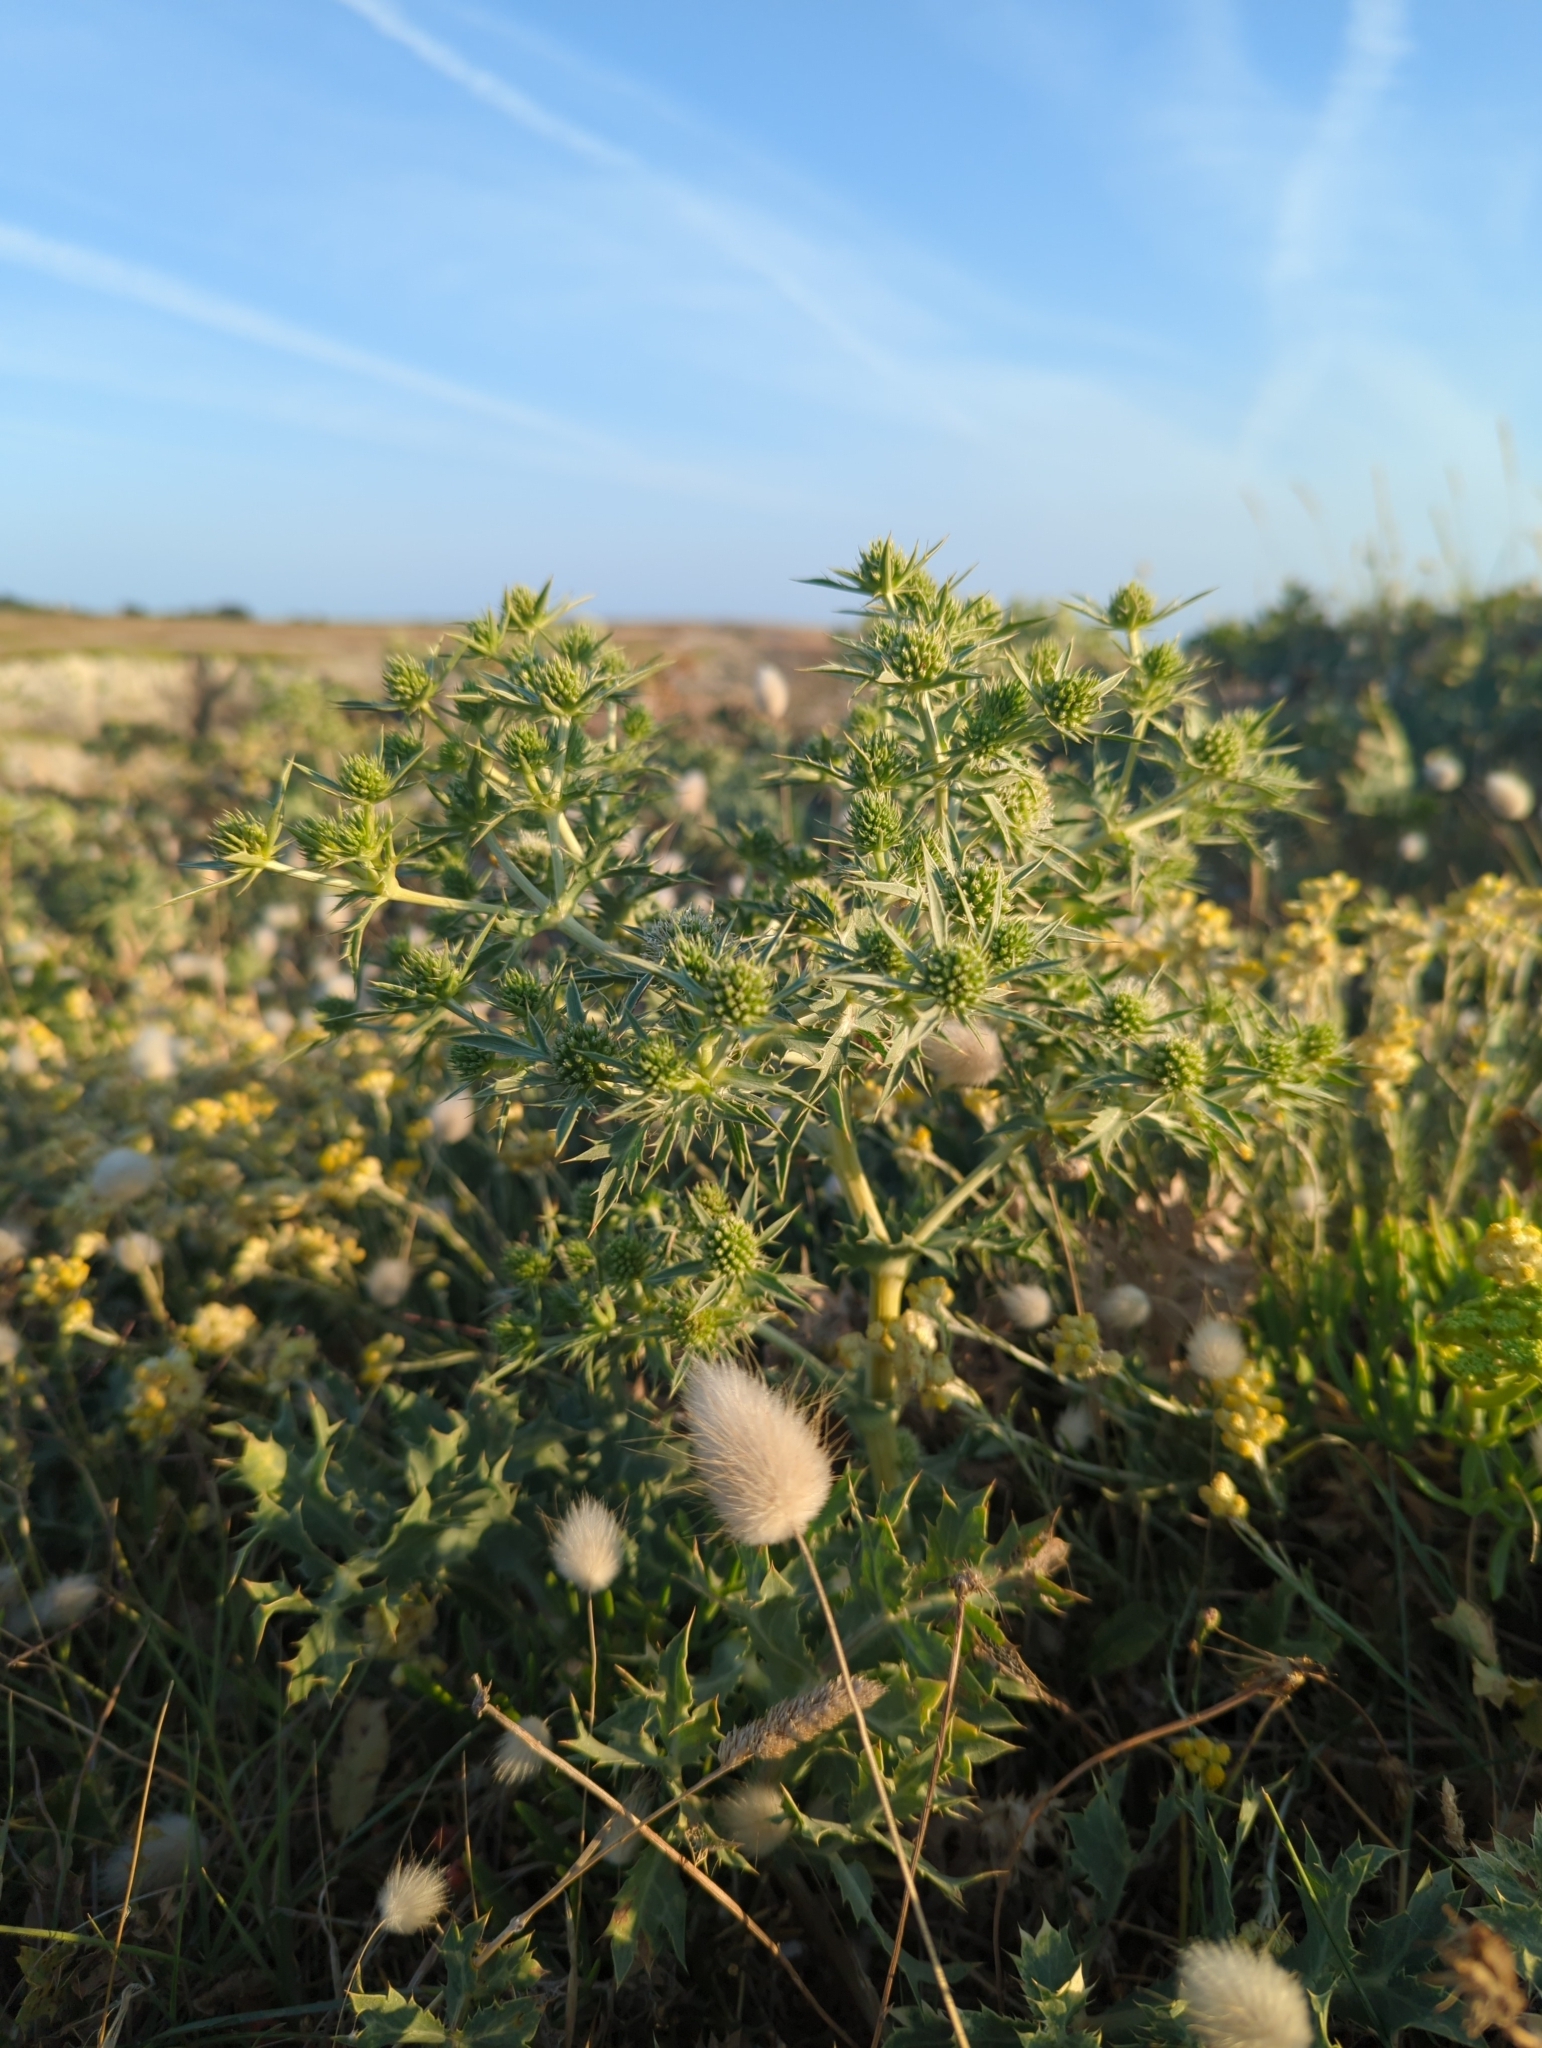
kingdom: Plantae
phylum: Tracheophyta
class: Magnoliopsida
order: Apiales
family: Apiaceae
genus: Eryngium
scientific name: Eryngium campestre
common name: Field eryngo
